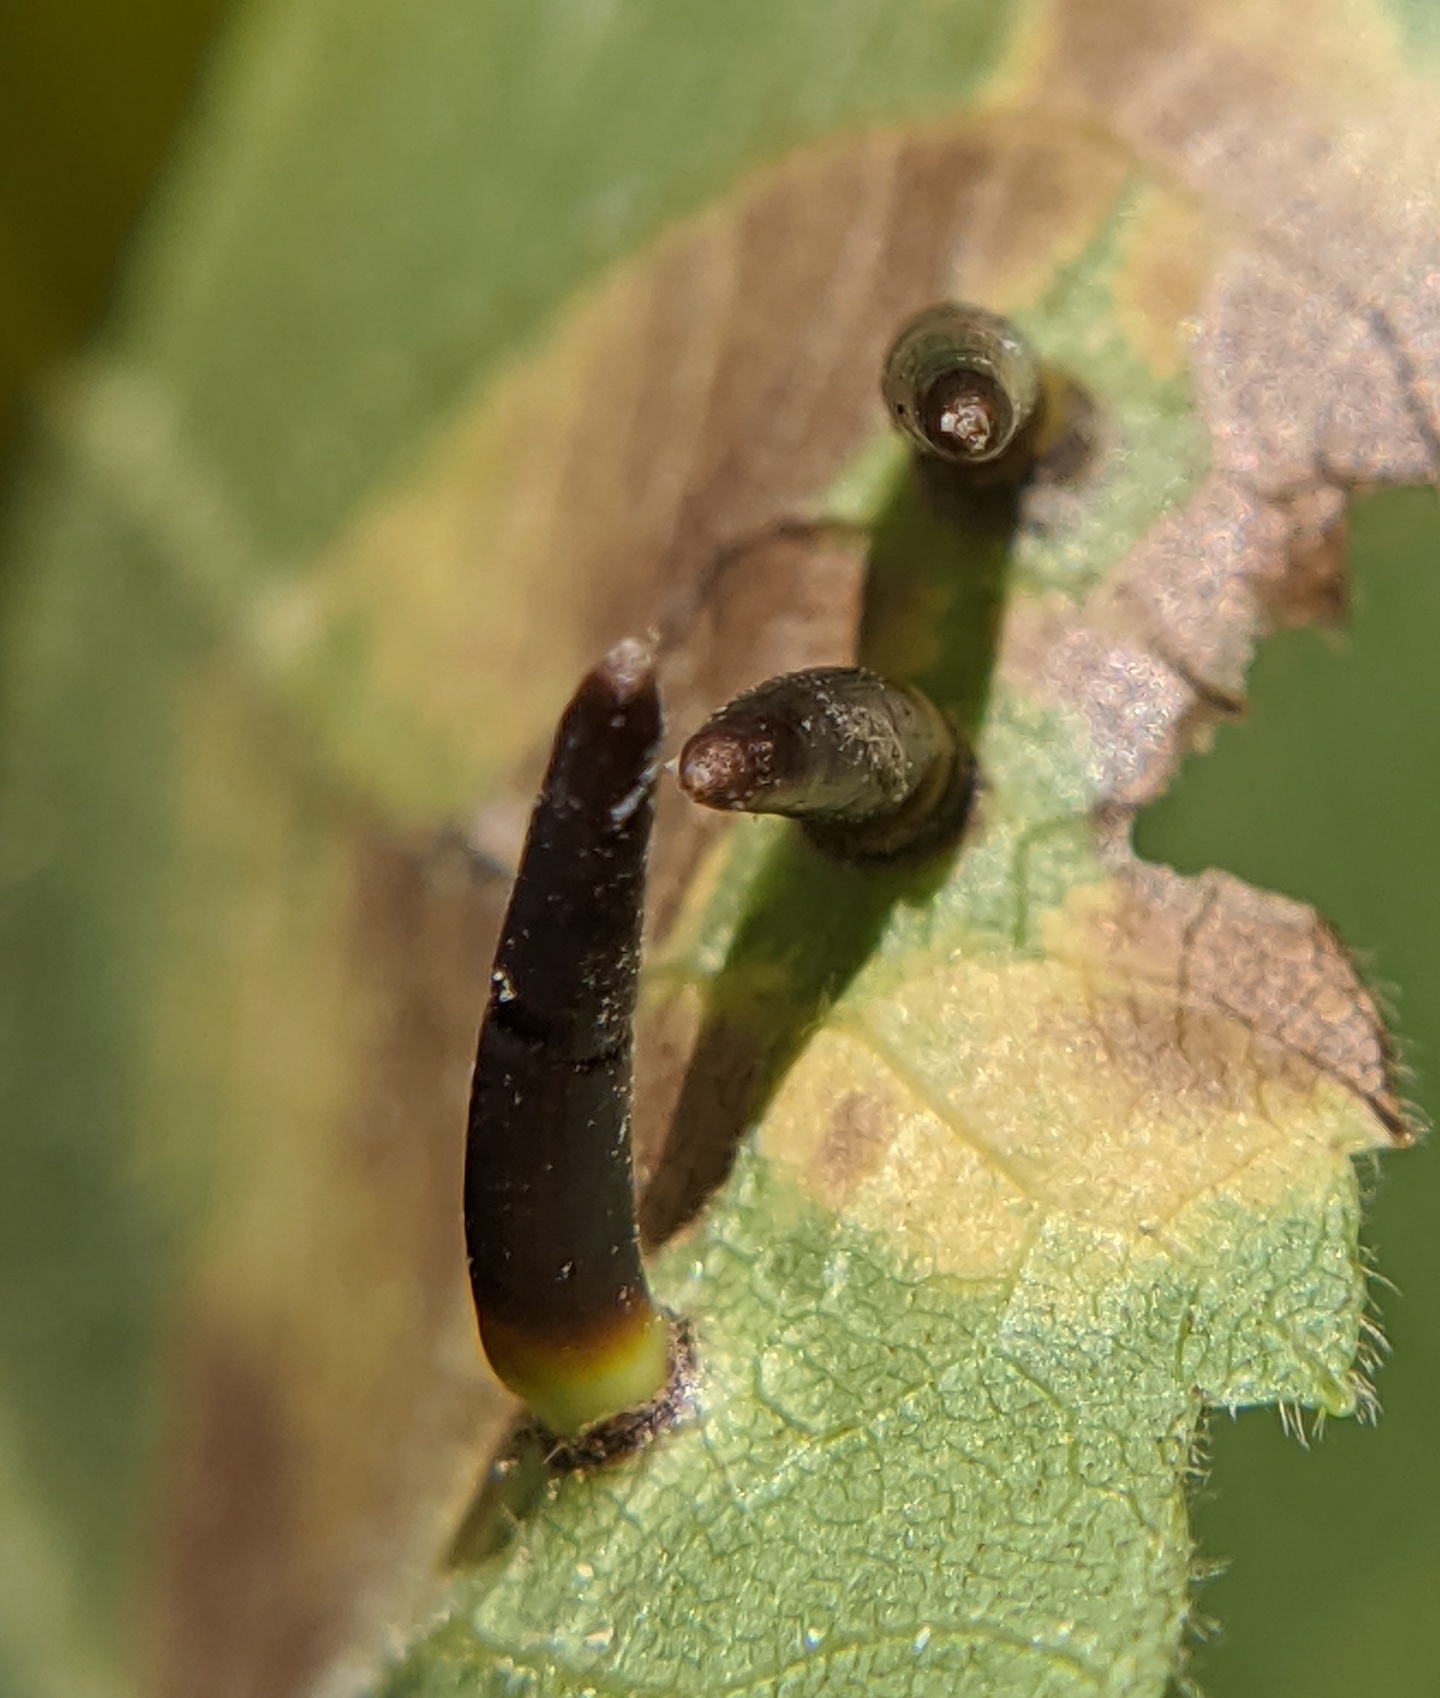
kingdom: Animalia
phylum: Arthropoda
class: Insecta
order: Diptera
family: Cecidomyiidae
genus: Caryomyia
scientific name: Caryomyia subulata
